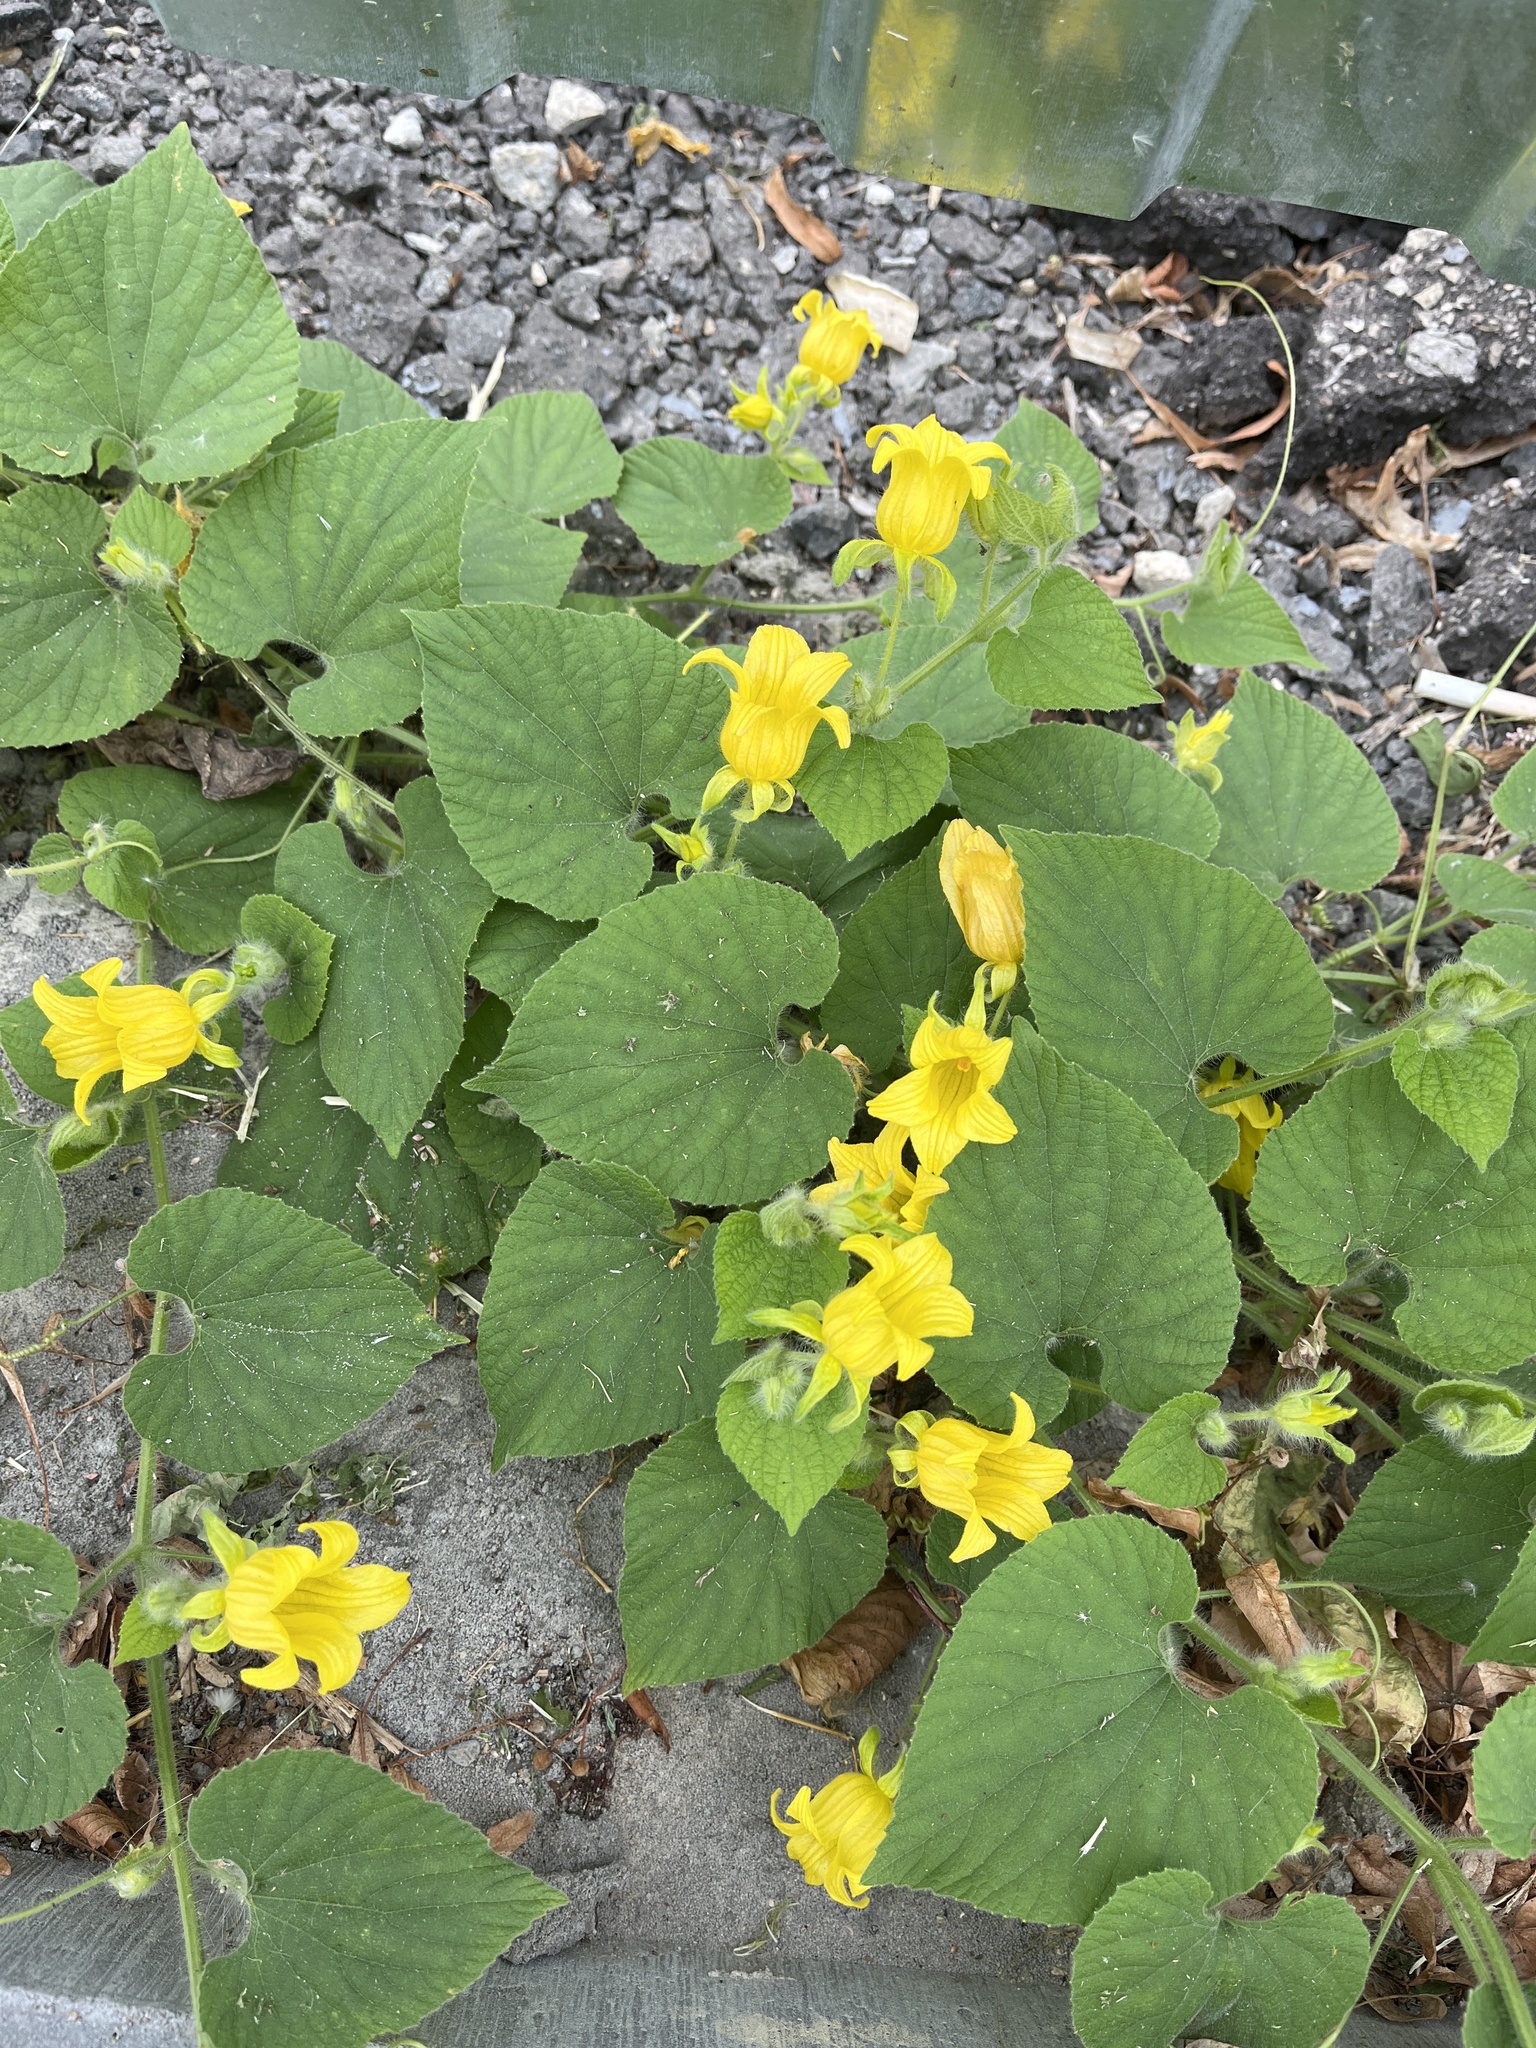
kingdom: Plantae
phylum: Tracheophyta
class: Magnoliopsida
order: Cucurbitales
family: Cucurbitaceae
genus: Thladiantha
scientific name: Thladiantha dubia
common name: Manchu tubergourd
